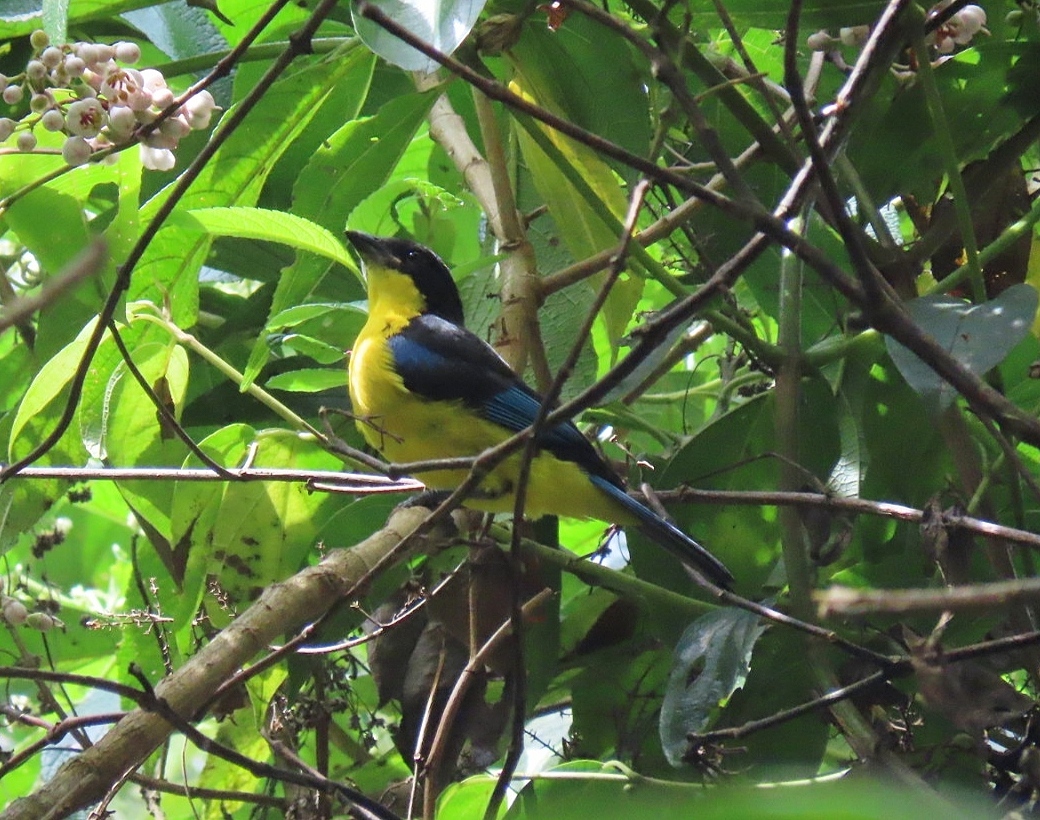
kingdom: Animalia
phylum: Chordata
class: Aves
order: Passeriformes
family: Thraupidae
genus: Anisognathus
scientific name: Anisognathus somptuosus
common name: Blue-winged mountain-tanager
